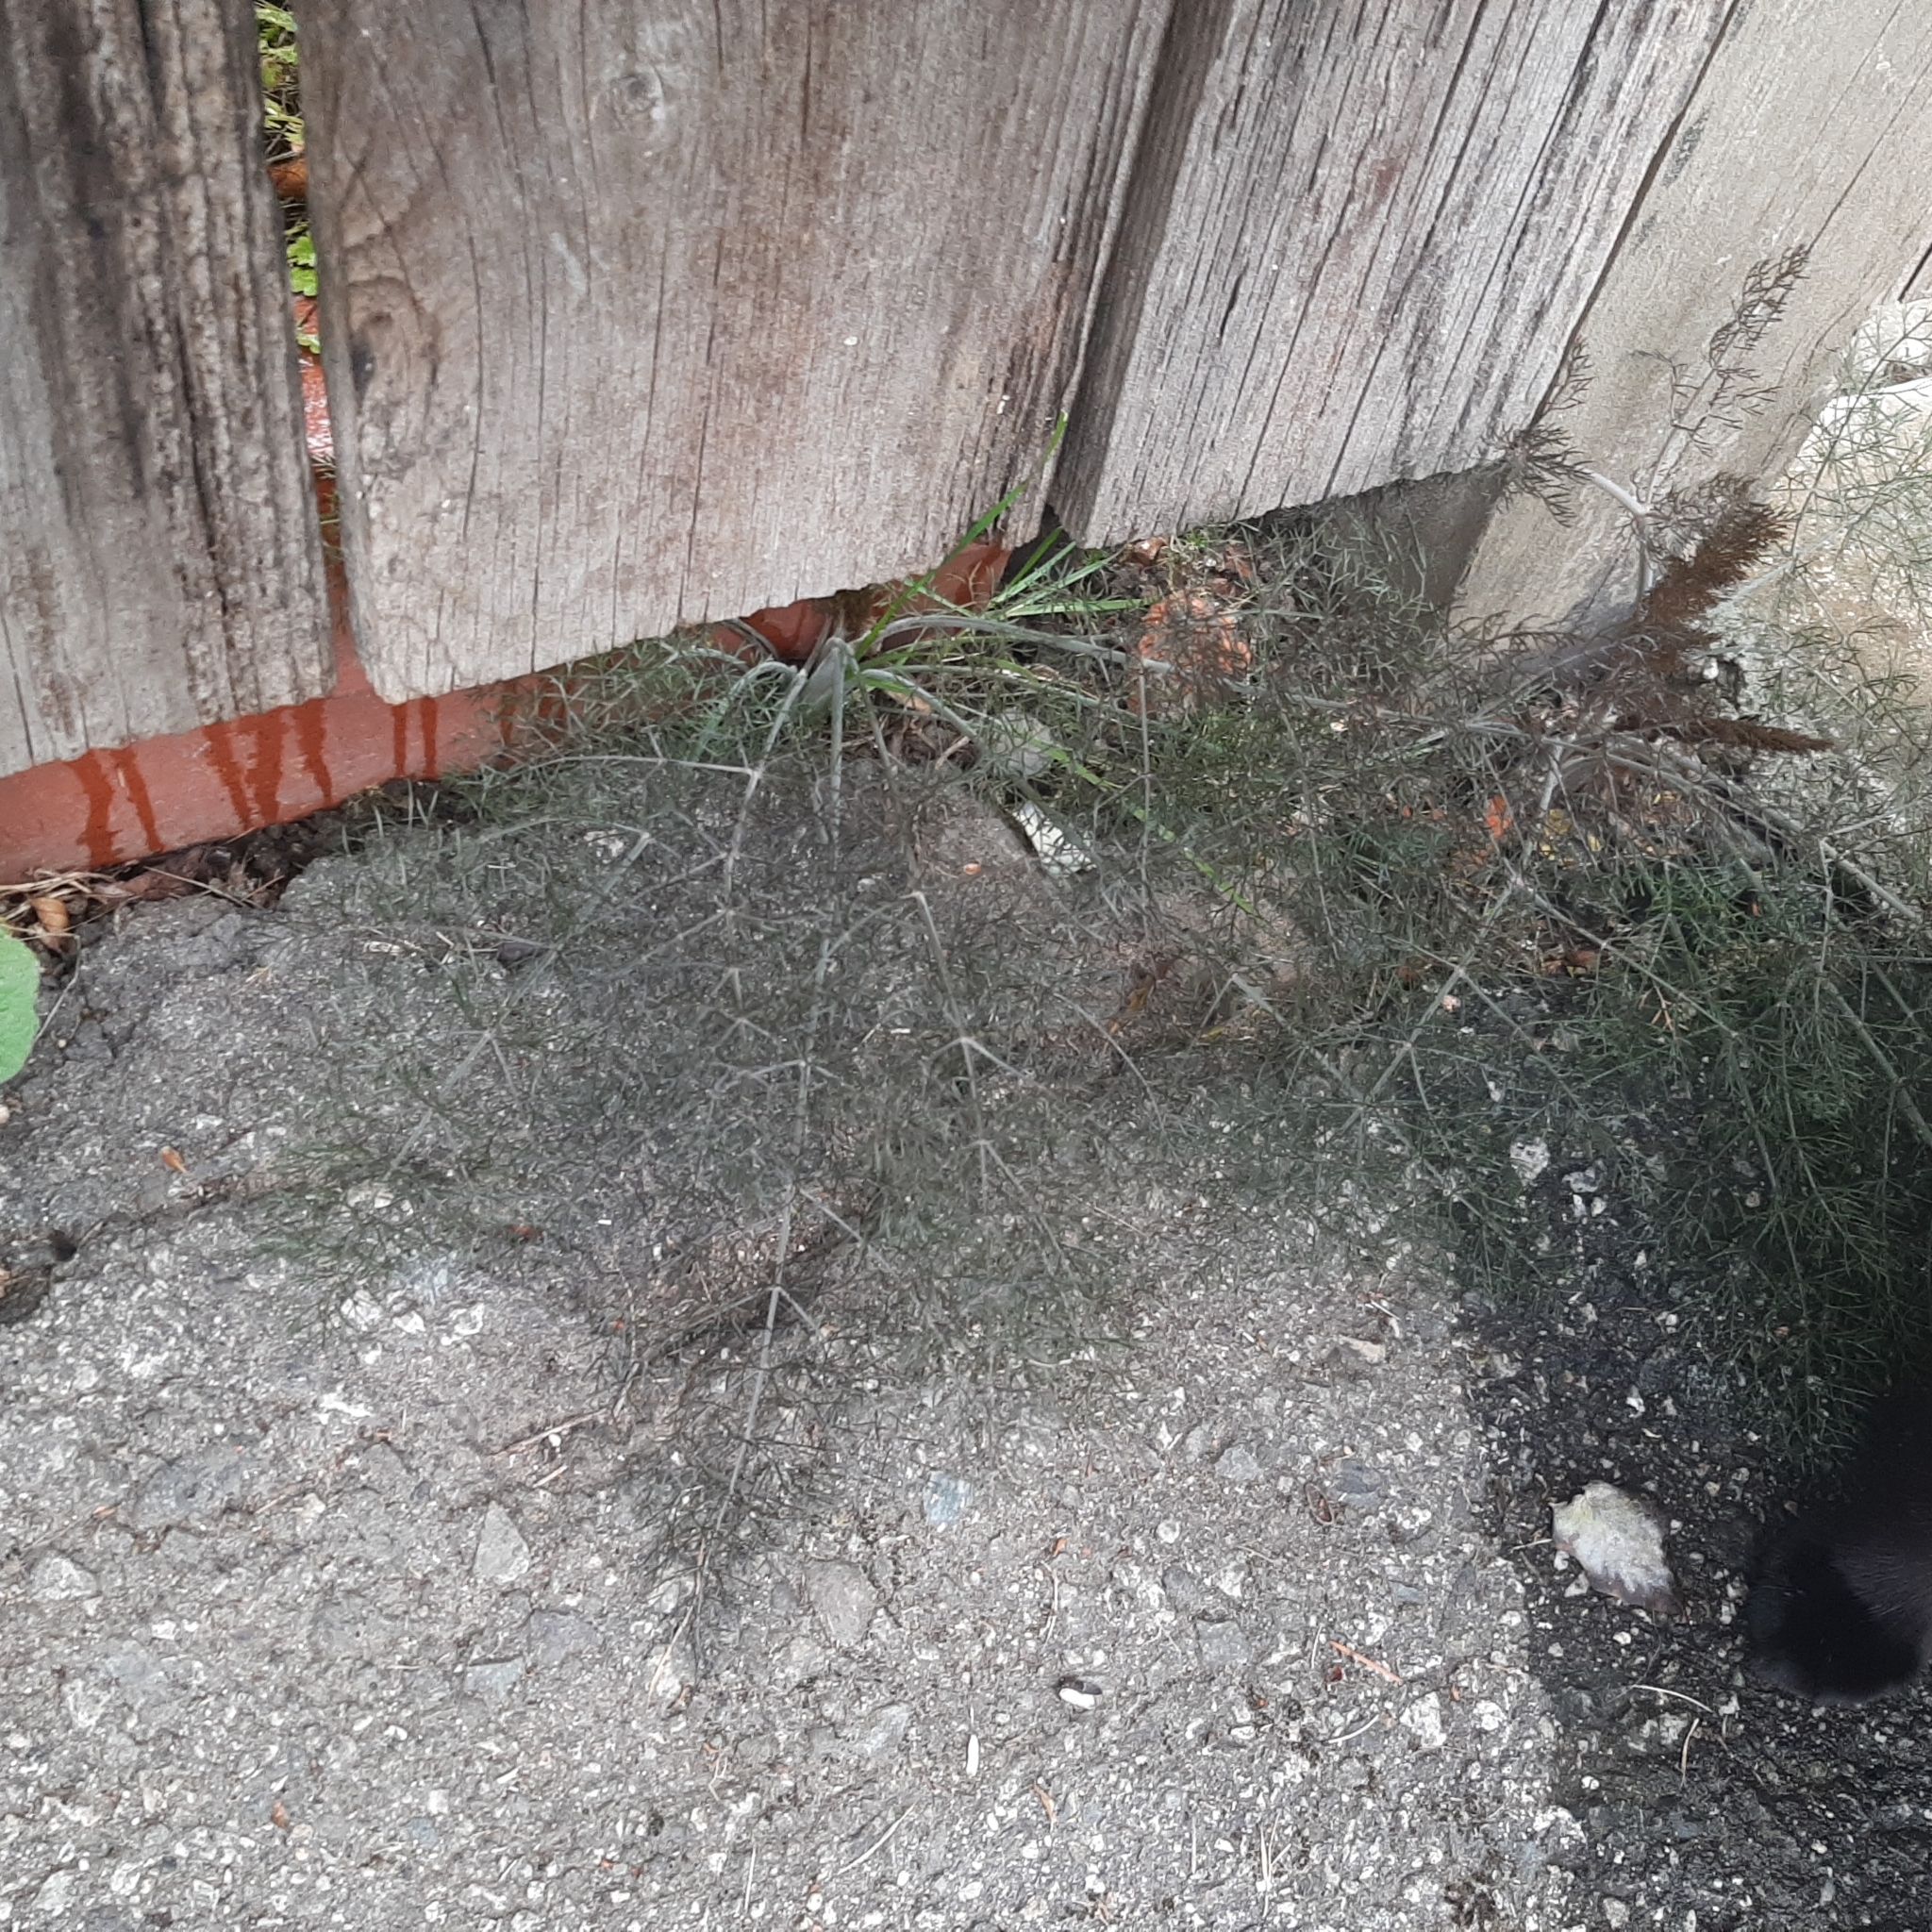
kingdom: Plantae
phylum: Tracheophyta
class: Magnoliopsida
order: Apiales
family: Apiaceae
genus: Foeniculum
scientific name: Foeniculum vulgare
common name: Fennel
